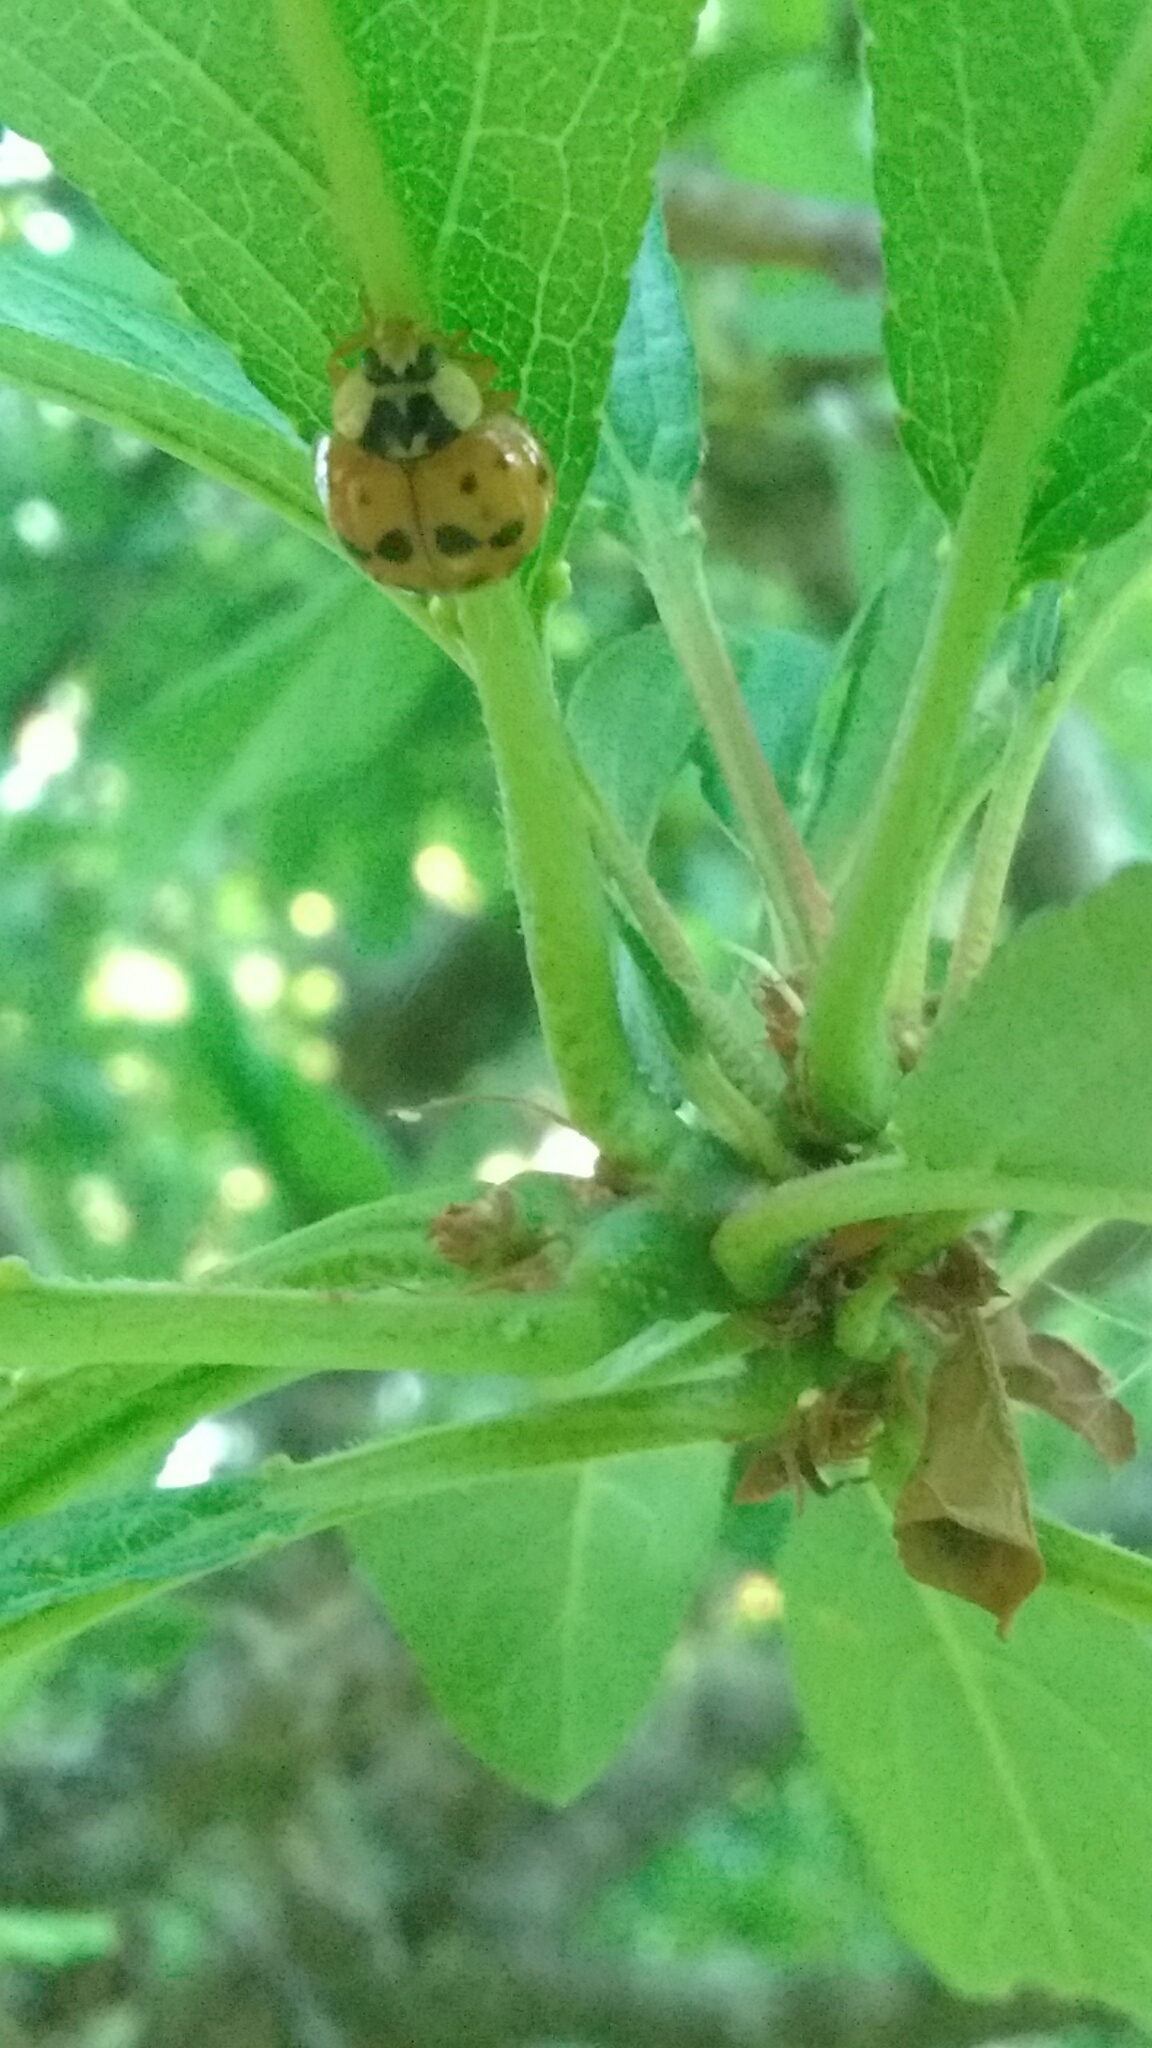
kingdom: Animalia
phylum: Arthropoda
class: Insecta
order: Coleoptera
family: Coccinellidae
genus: Harmonia
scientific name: Harmonia axyridis
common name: Harlequin ladybird
